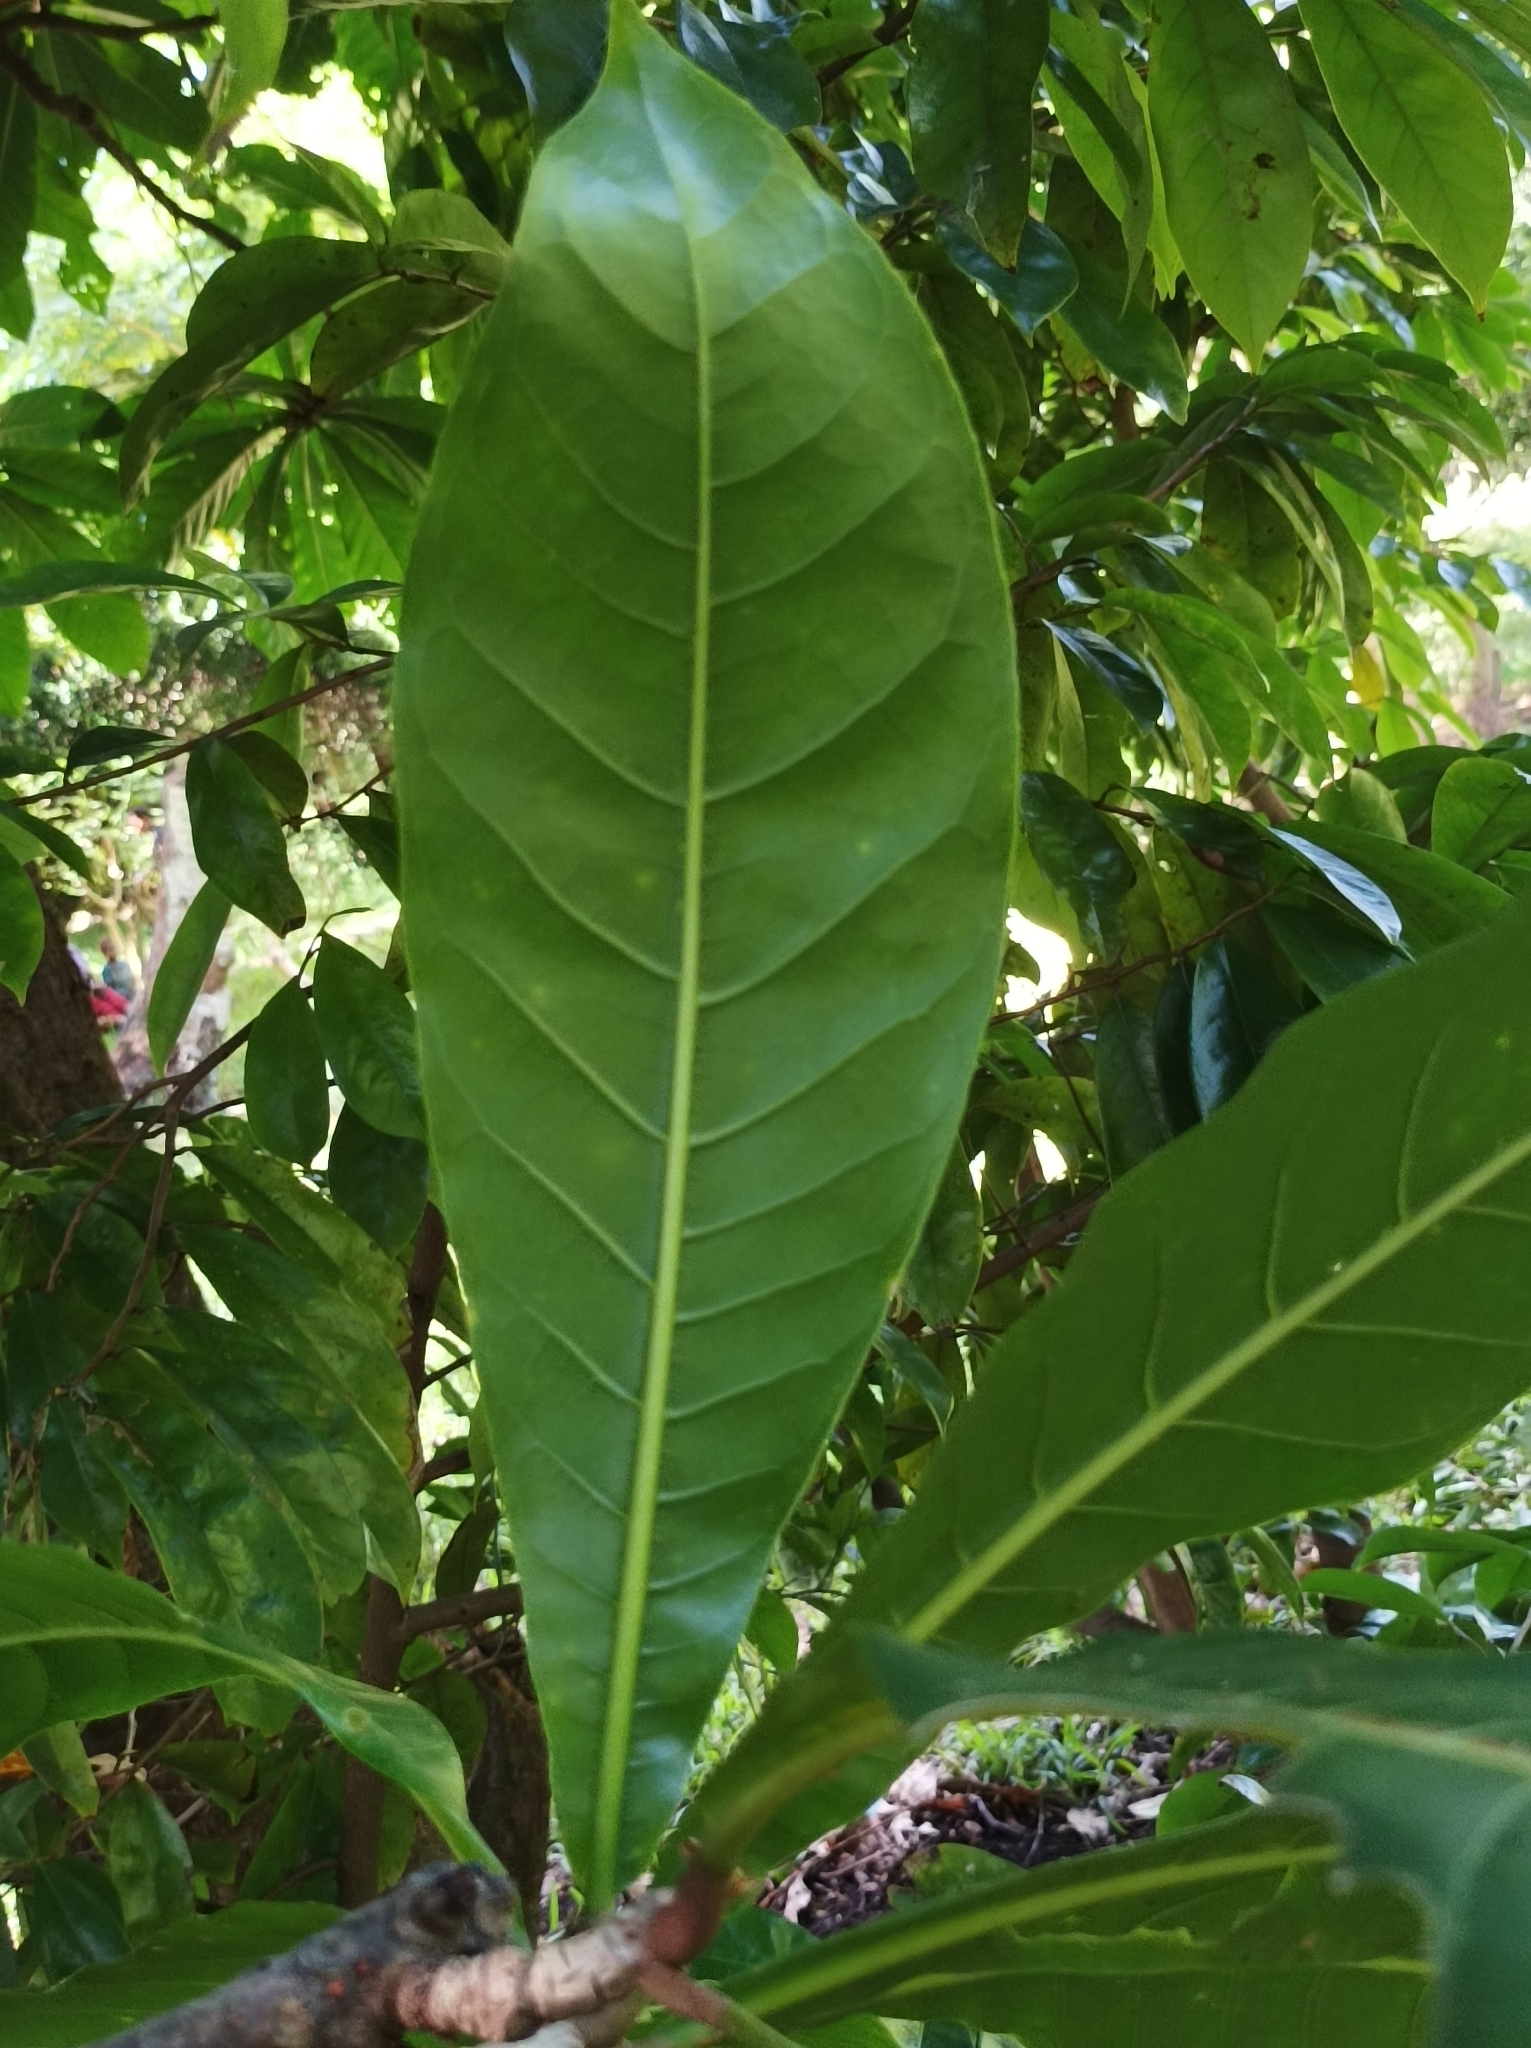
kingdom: Plantae
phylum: Tracheophyta
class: Magnoliopsida
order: Ericales
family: Lecythidaceae
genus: Barringtonia
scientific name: Barringtonia edulis
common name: Cutnut
